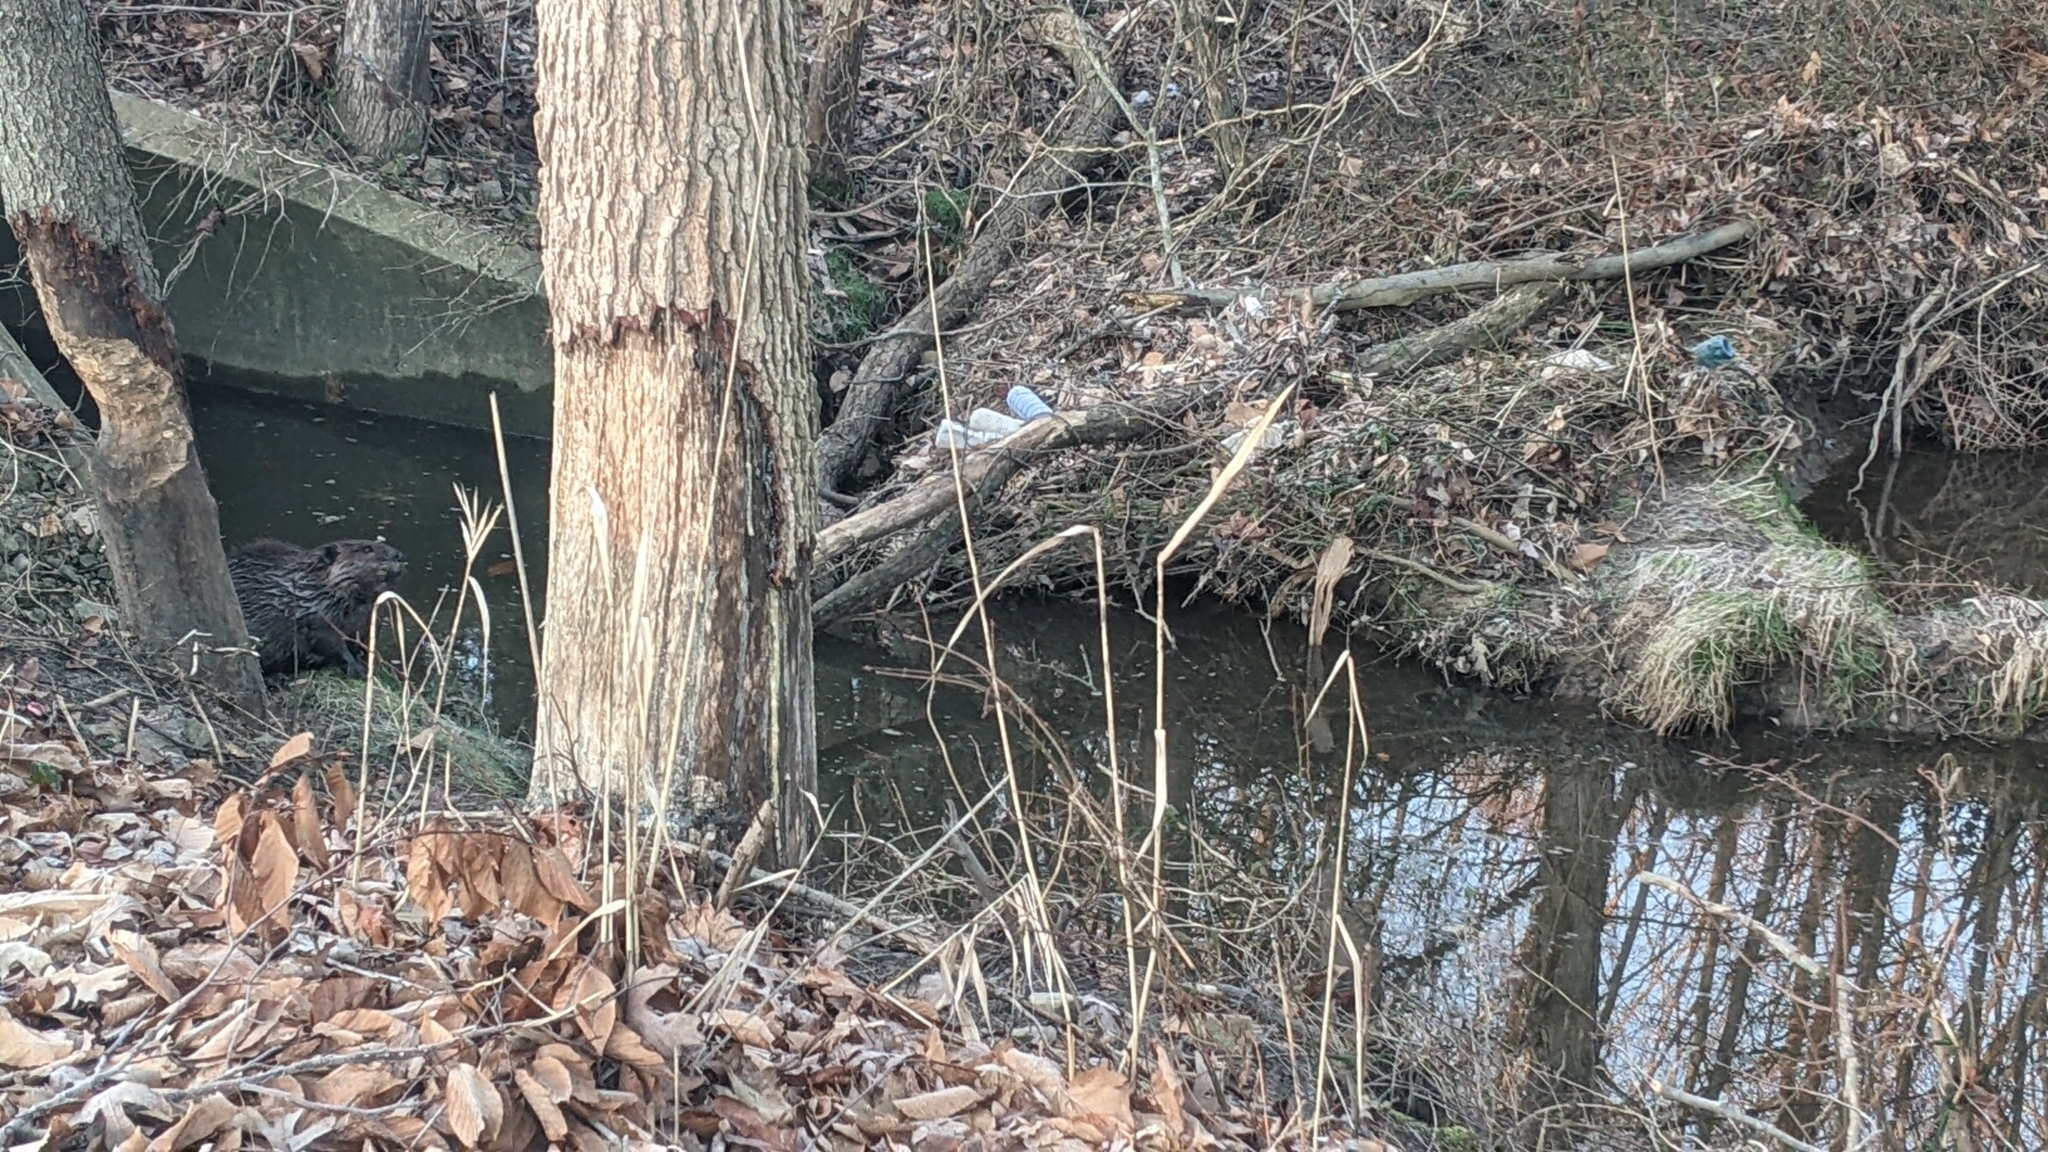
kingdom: Animalia
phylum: Chordata
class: Mammalia
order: Rodentia
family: Castoridae
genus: Castor
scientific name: Castor canadensis
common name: American beaver
